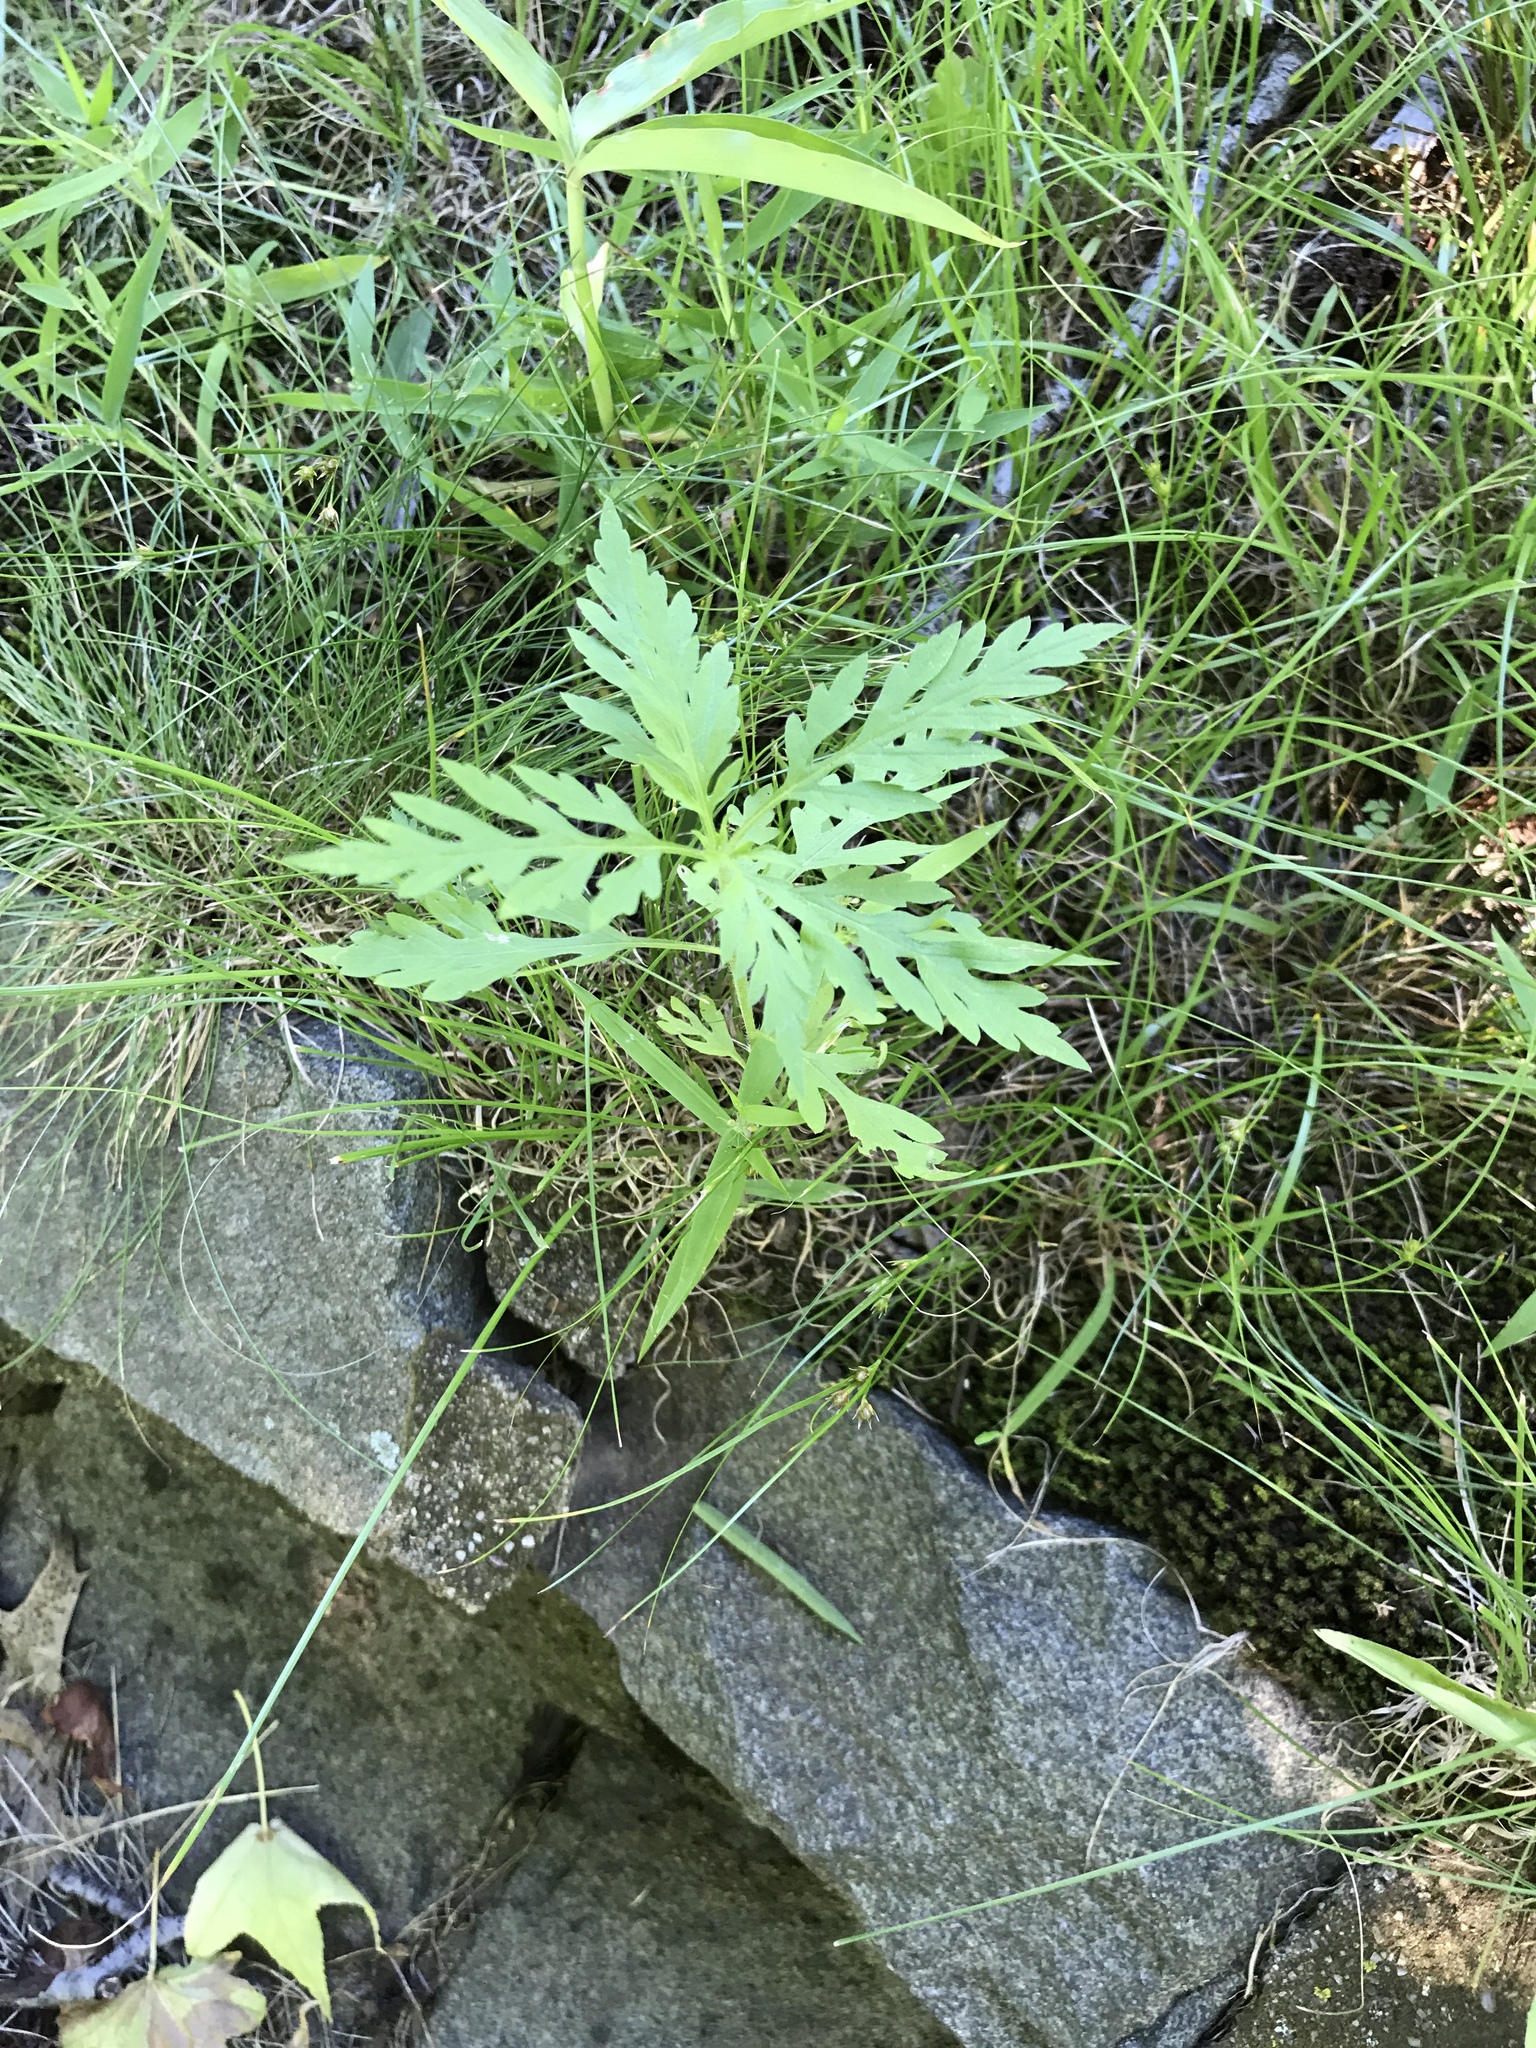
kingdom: Plantae
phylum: Tracheophyta
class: Magnoliopsida
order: Asterales
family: Asteraceae
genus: Ambrosia
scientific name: Ambrosia artemisiifolia
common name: Annual ragweed
